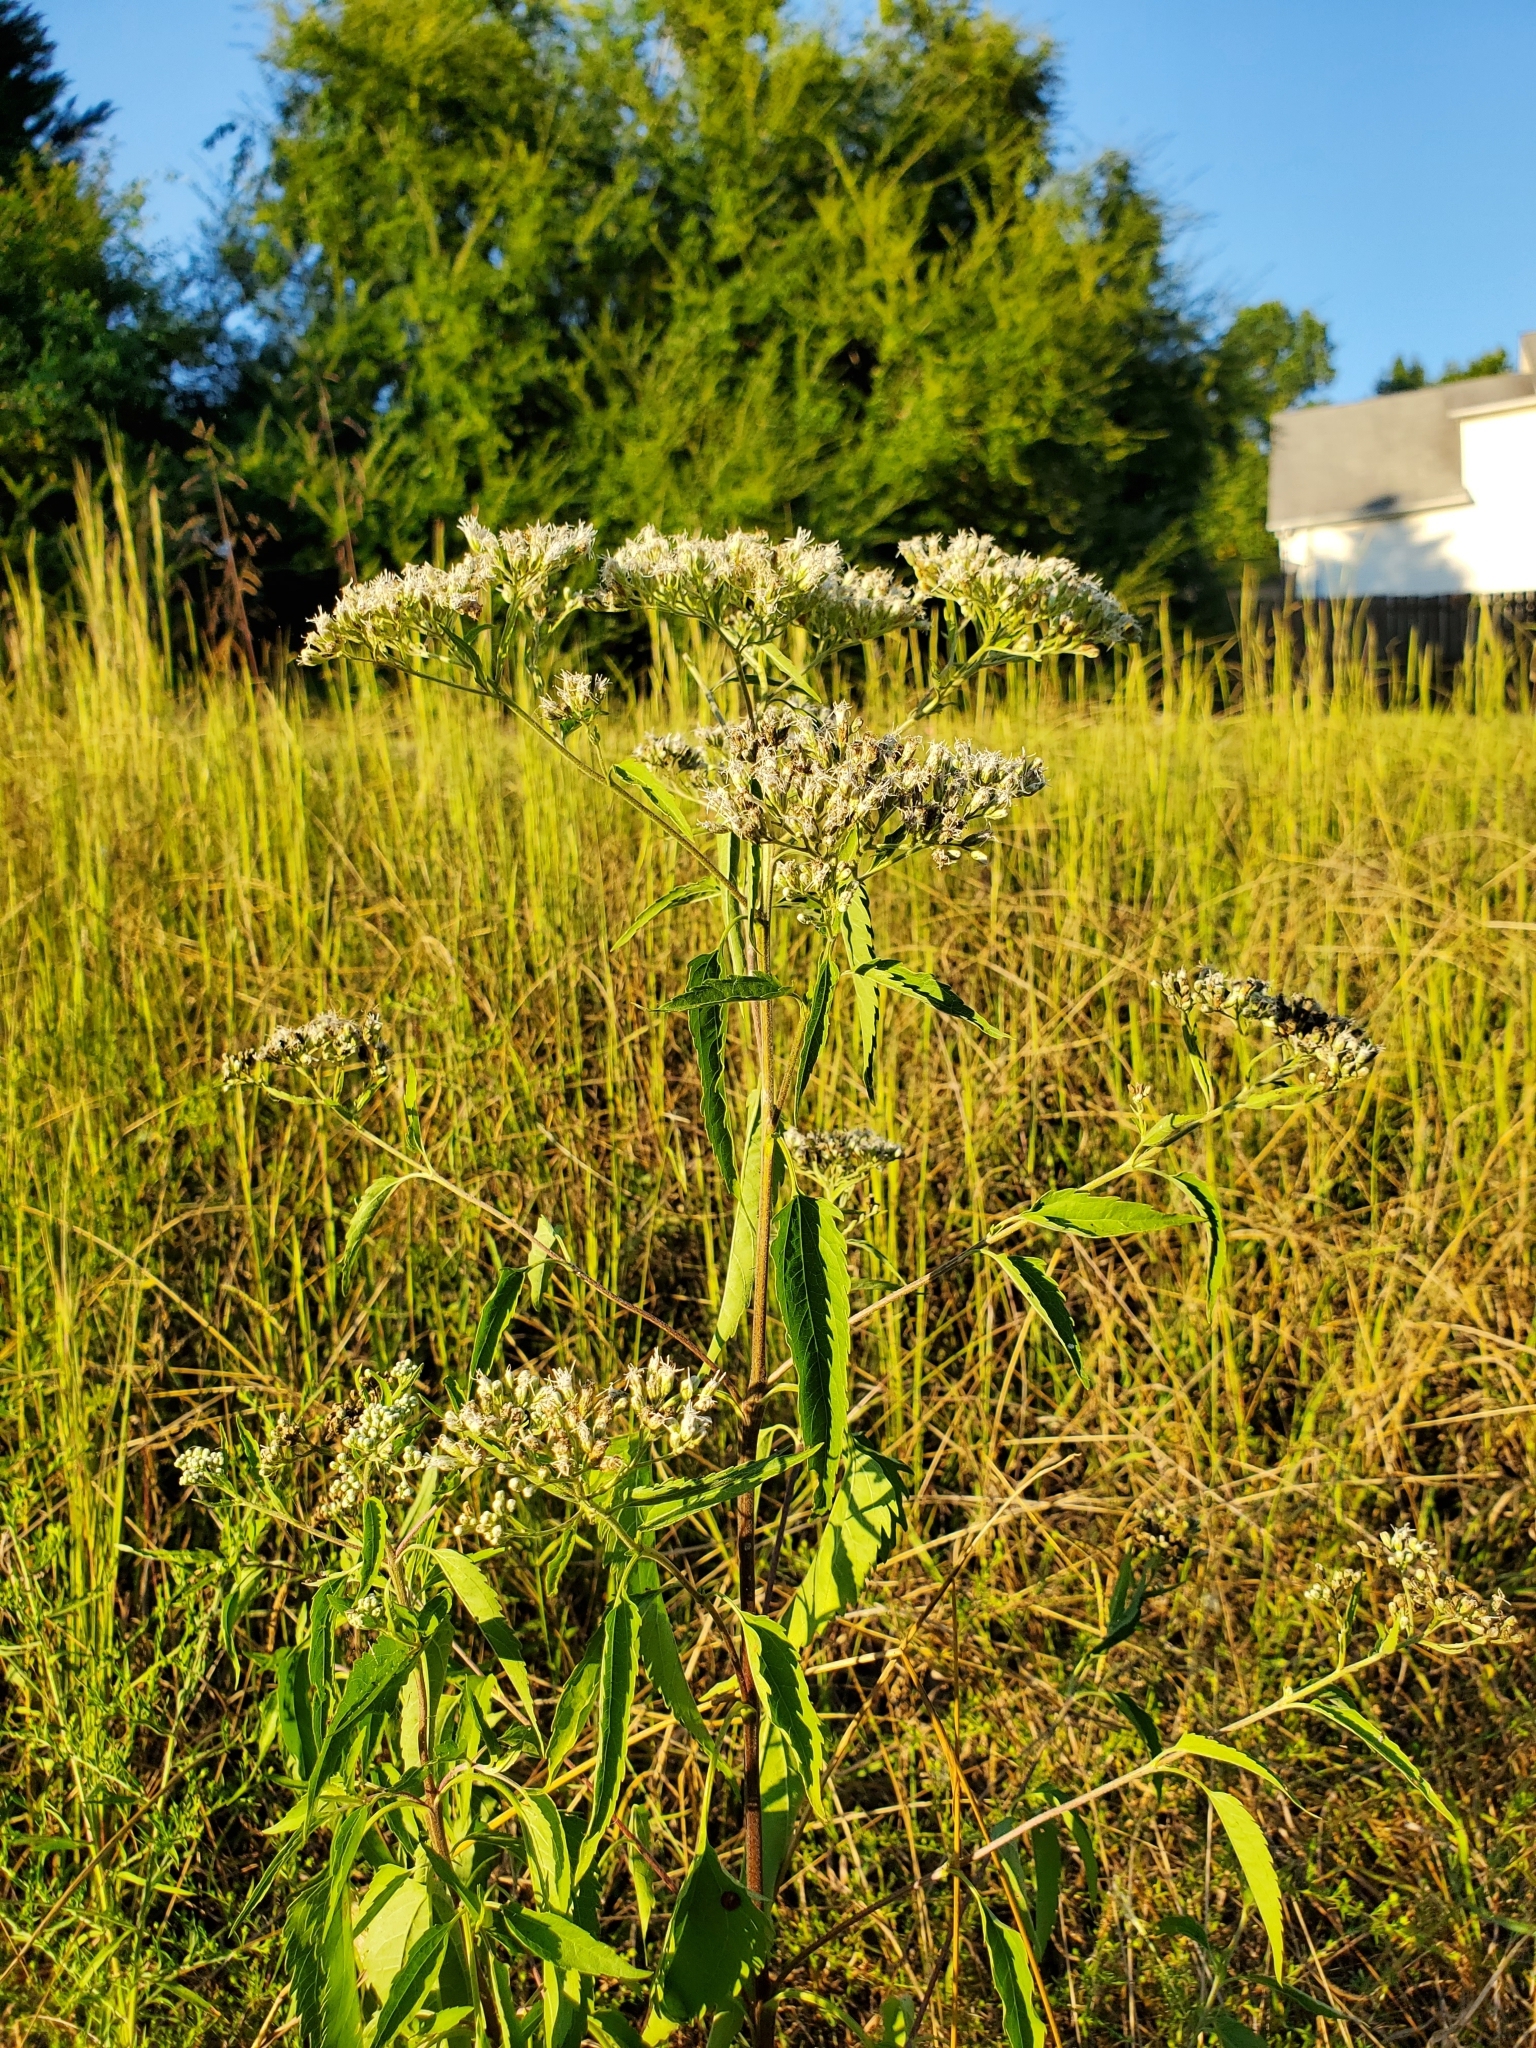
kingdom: Plantae
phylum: Tracheophyta
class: Magnoliopsida
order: Asterales
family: Asteraceae
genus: Eupatorium
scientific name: Eupatorium serotinum
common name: Late boneset
